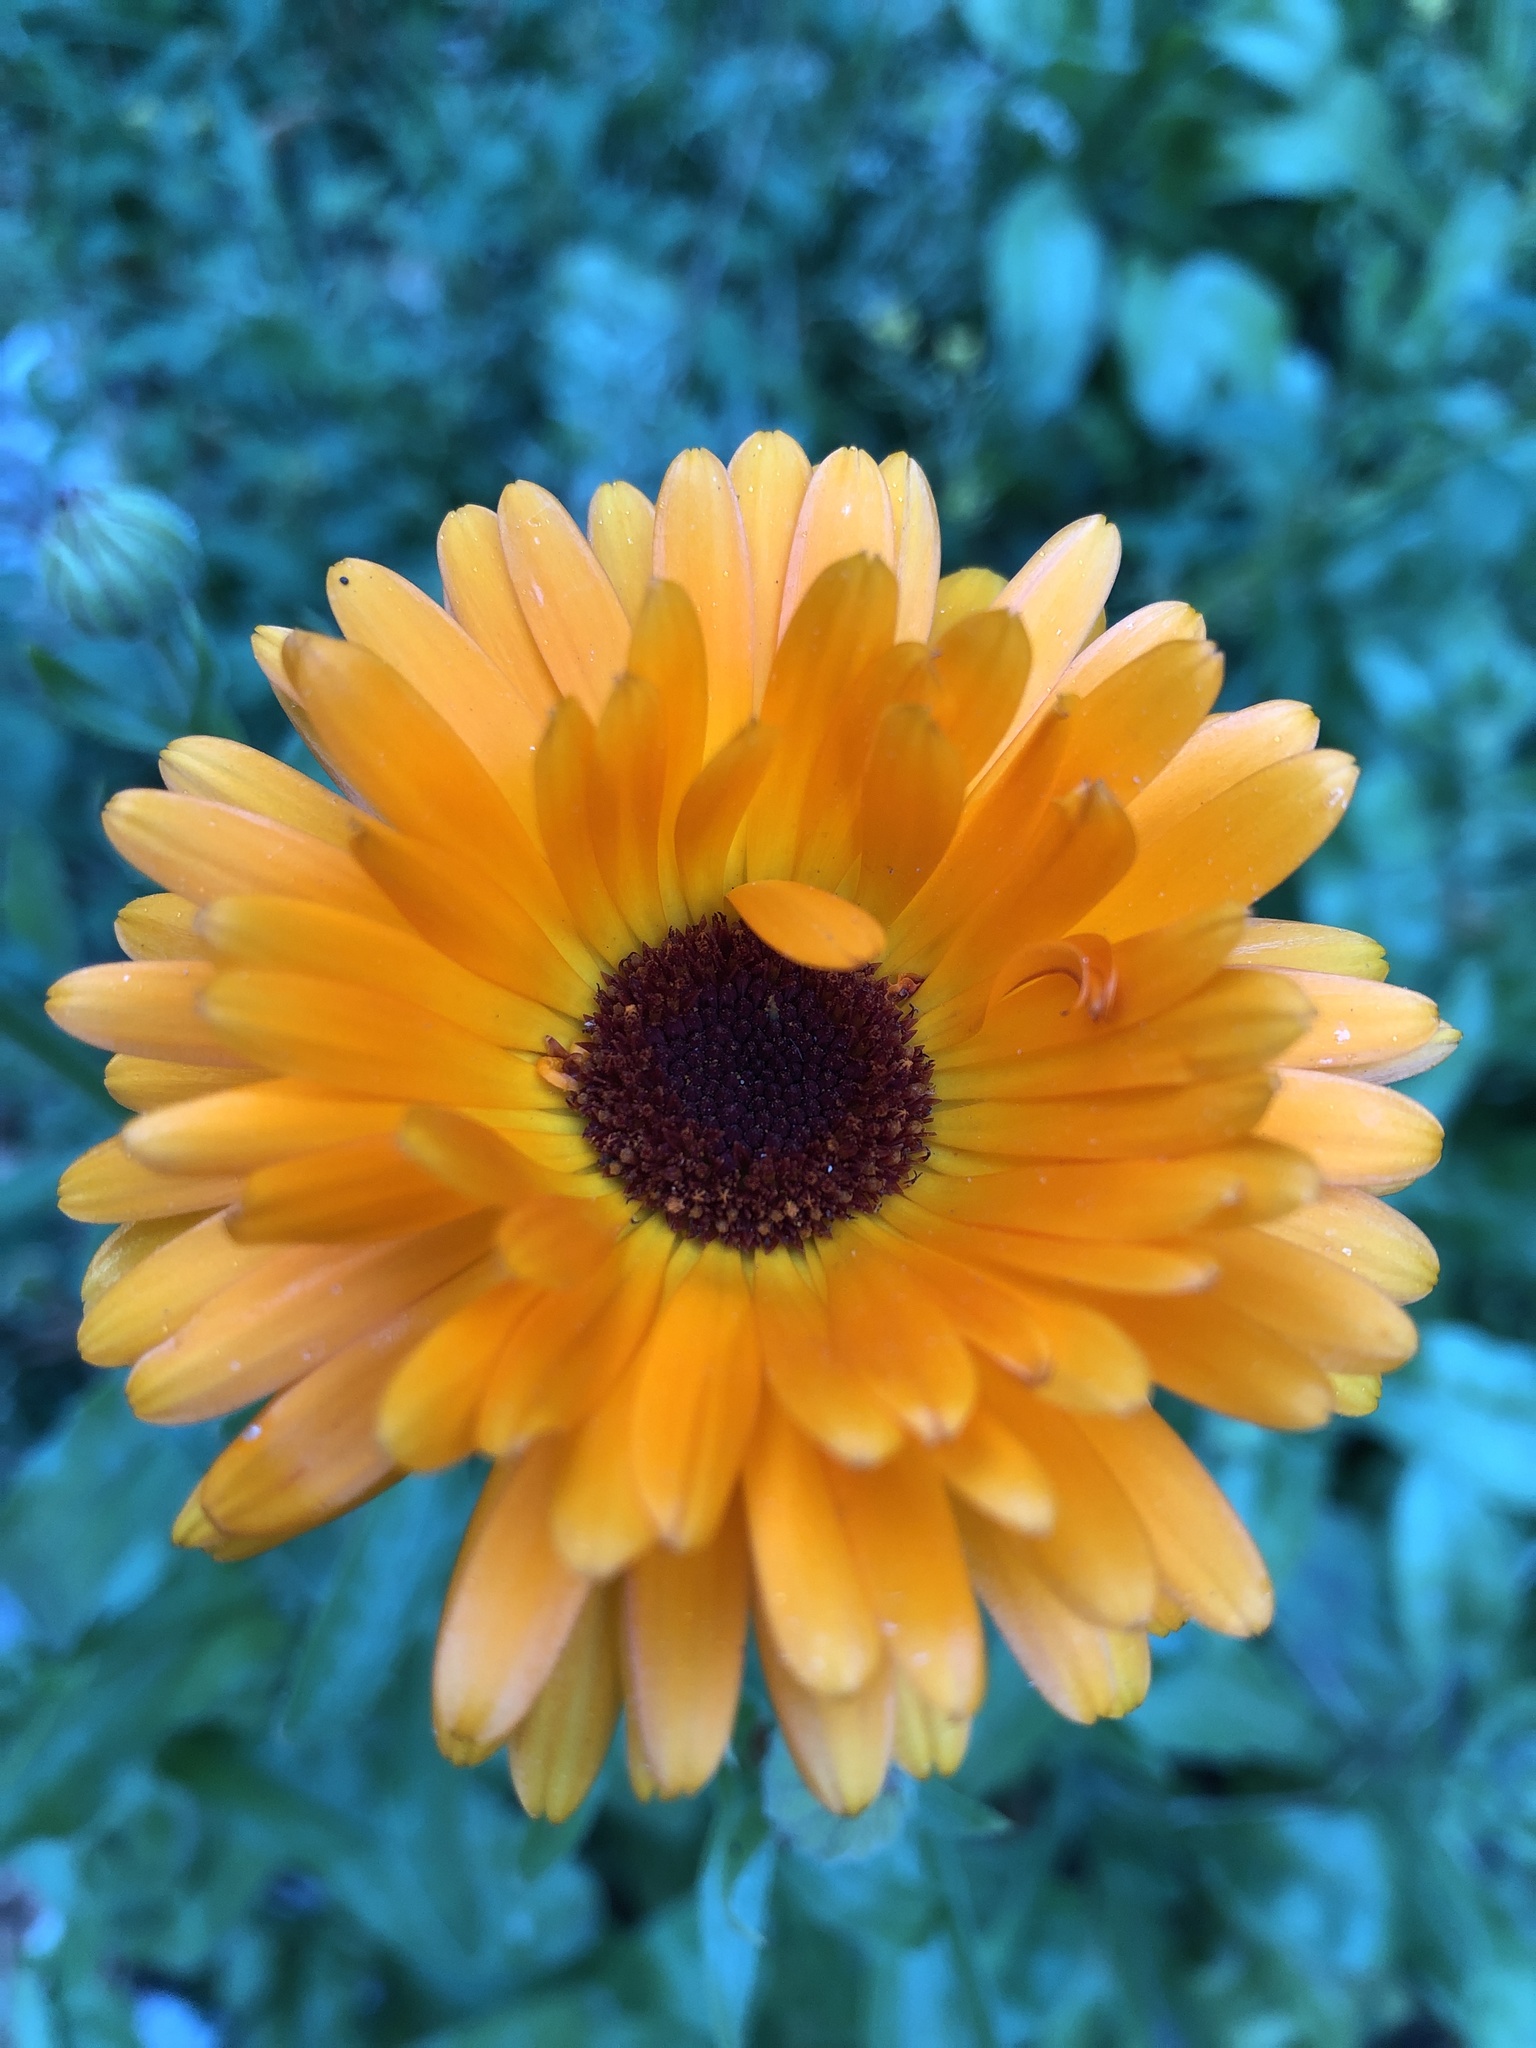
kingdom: Plantae
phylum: Tracheophyta
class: Magnoliopsida
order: Asterales
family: Asteraceae
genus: Calendula
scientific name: Calendula officinalis
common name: Pot marigold
